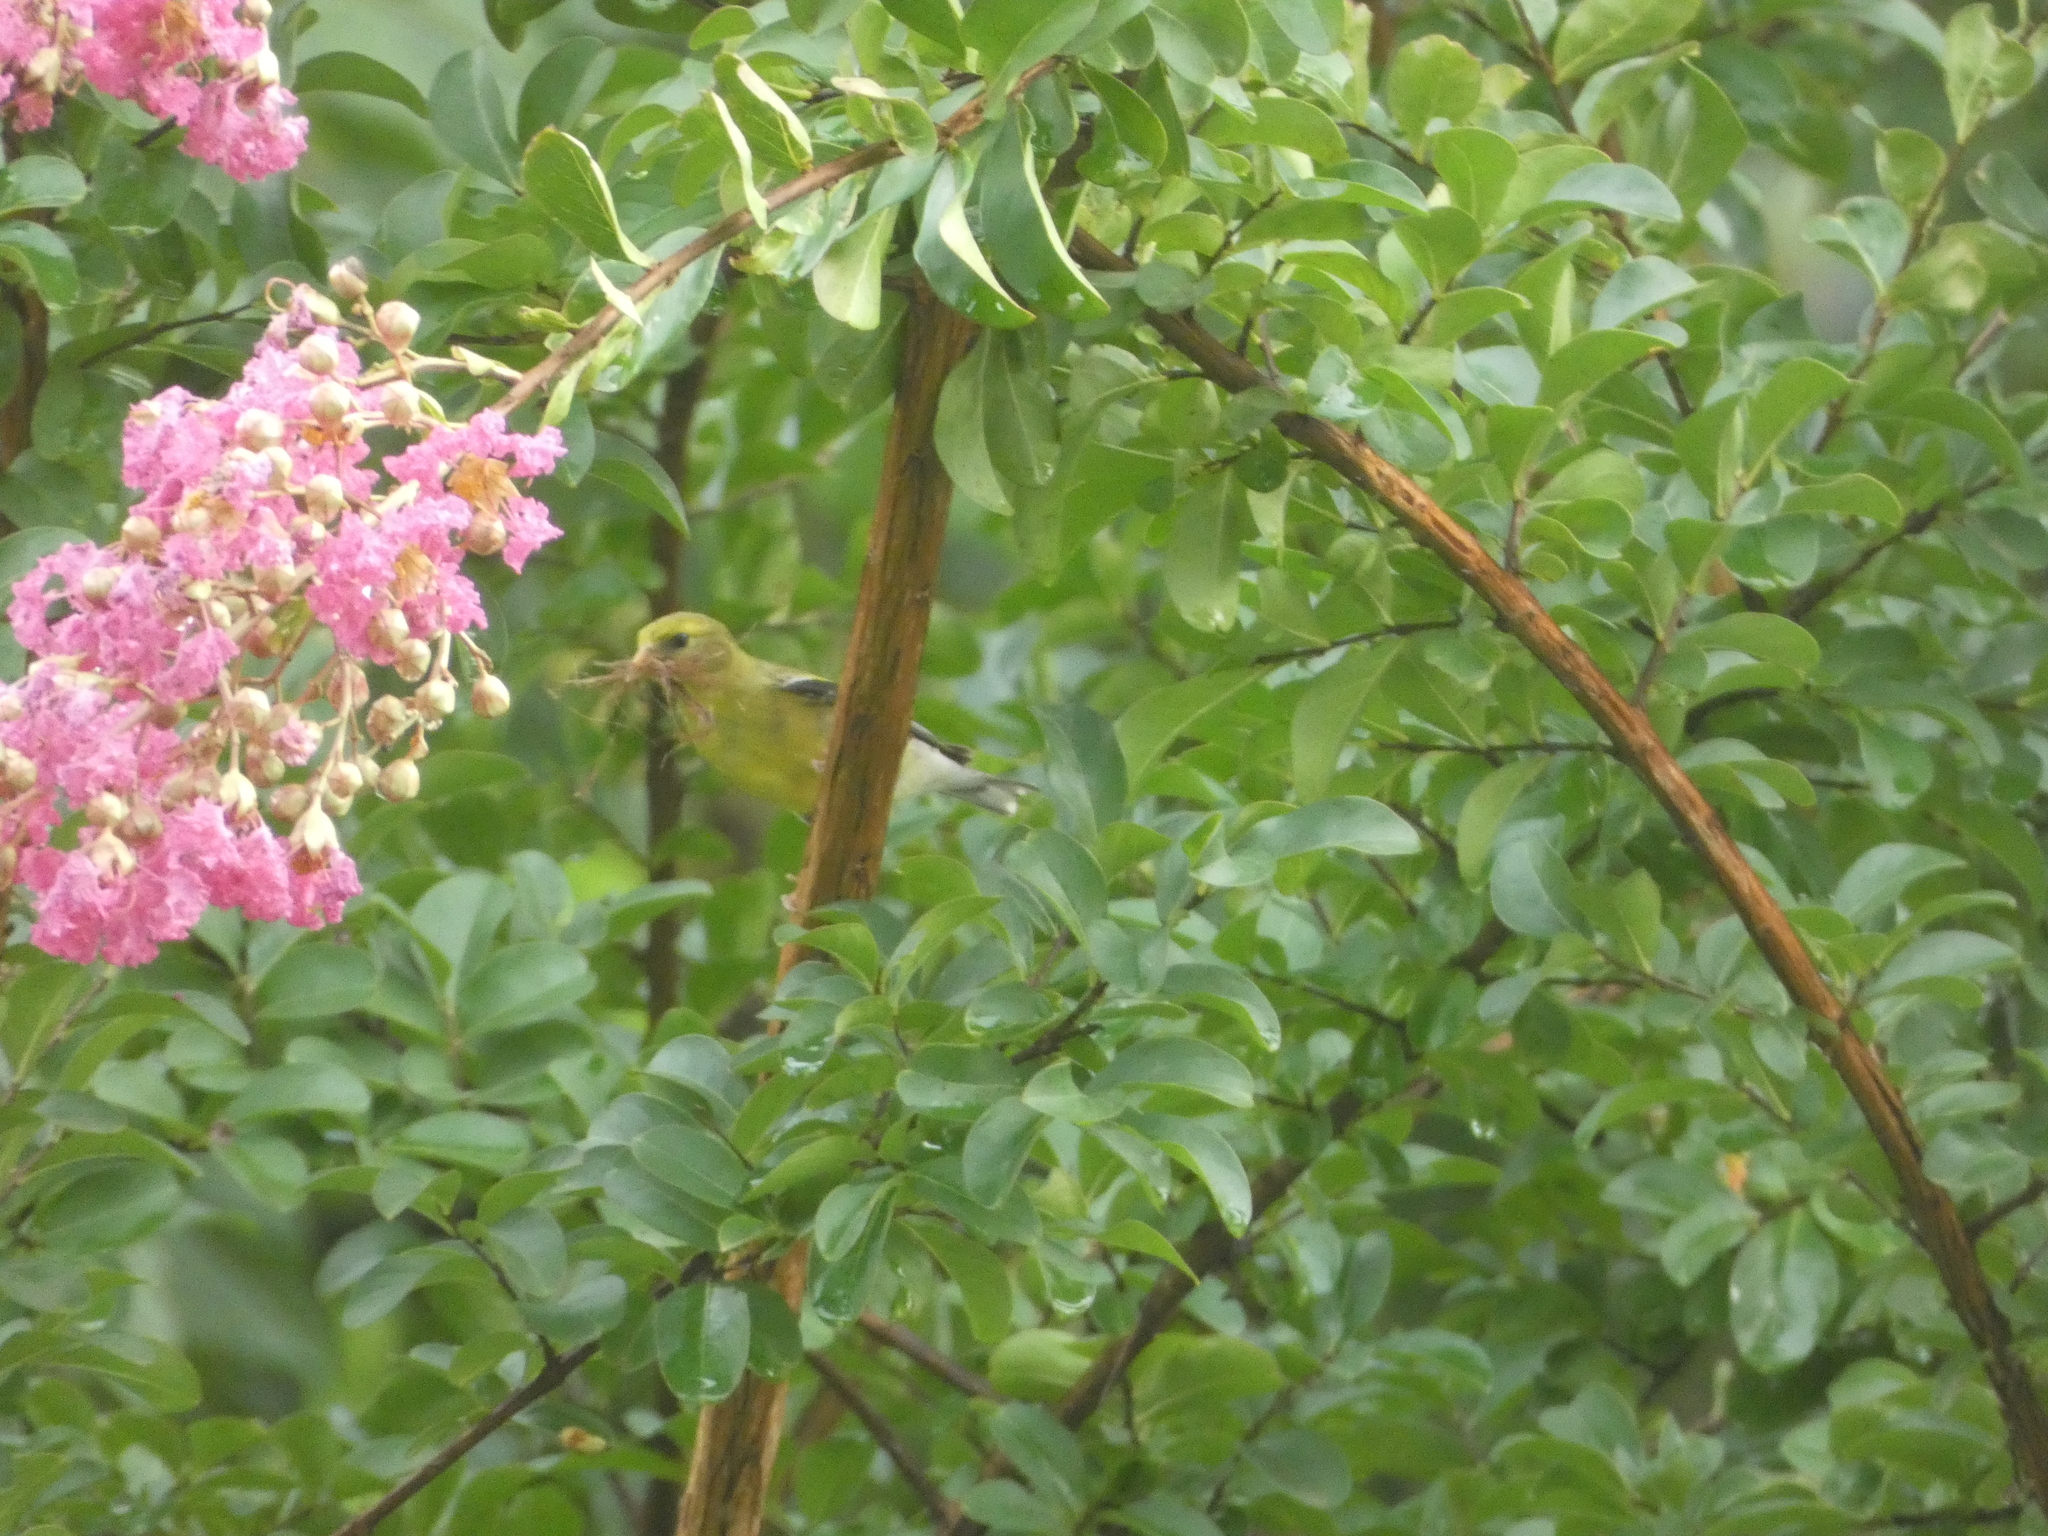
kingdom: Animalia
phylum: Chordata
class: Aves
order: Passeriformes
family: Fringillidae
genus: Spinus
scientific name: Spinus tristis
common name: American goldfinch
